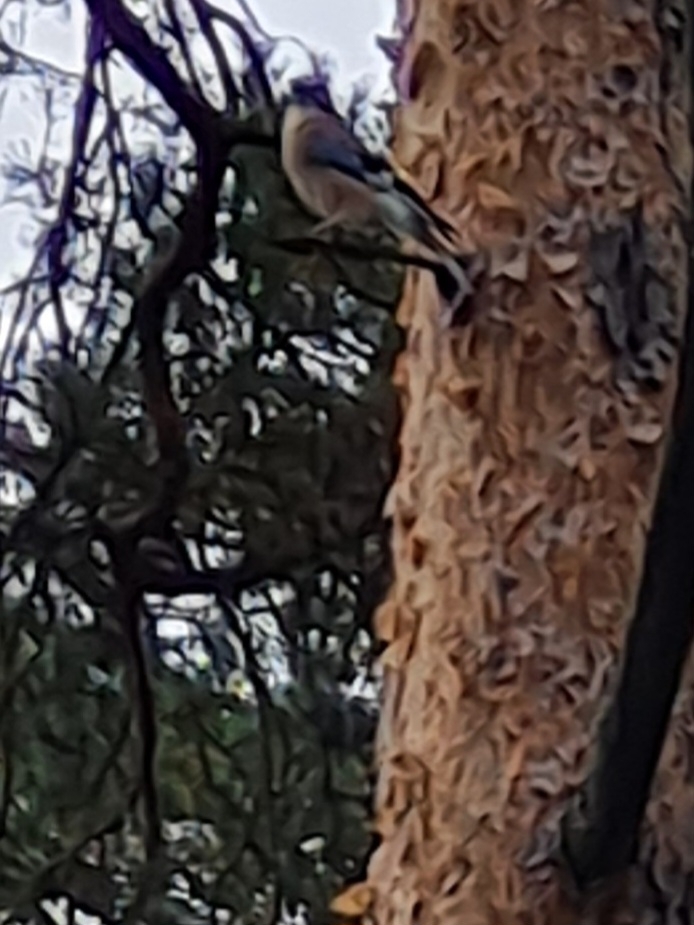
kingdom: Animalia
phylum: Chordata
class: Aves
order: Passeriformes
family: Corvidae
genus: Garrulus
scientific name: Garrulus glandarius
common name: Eurasian jay
